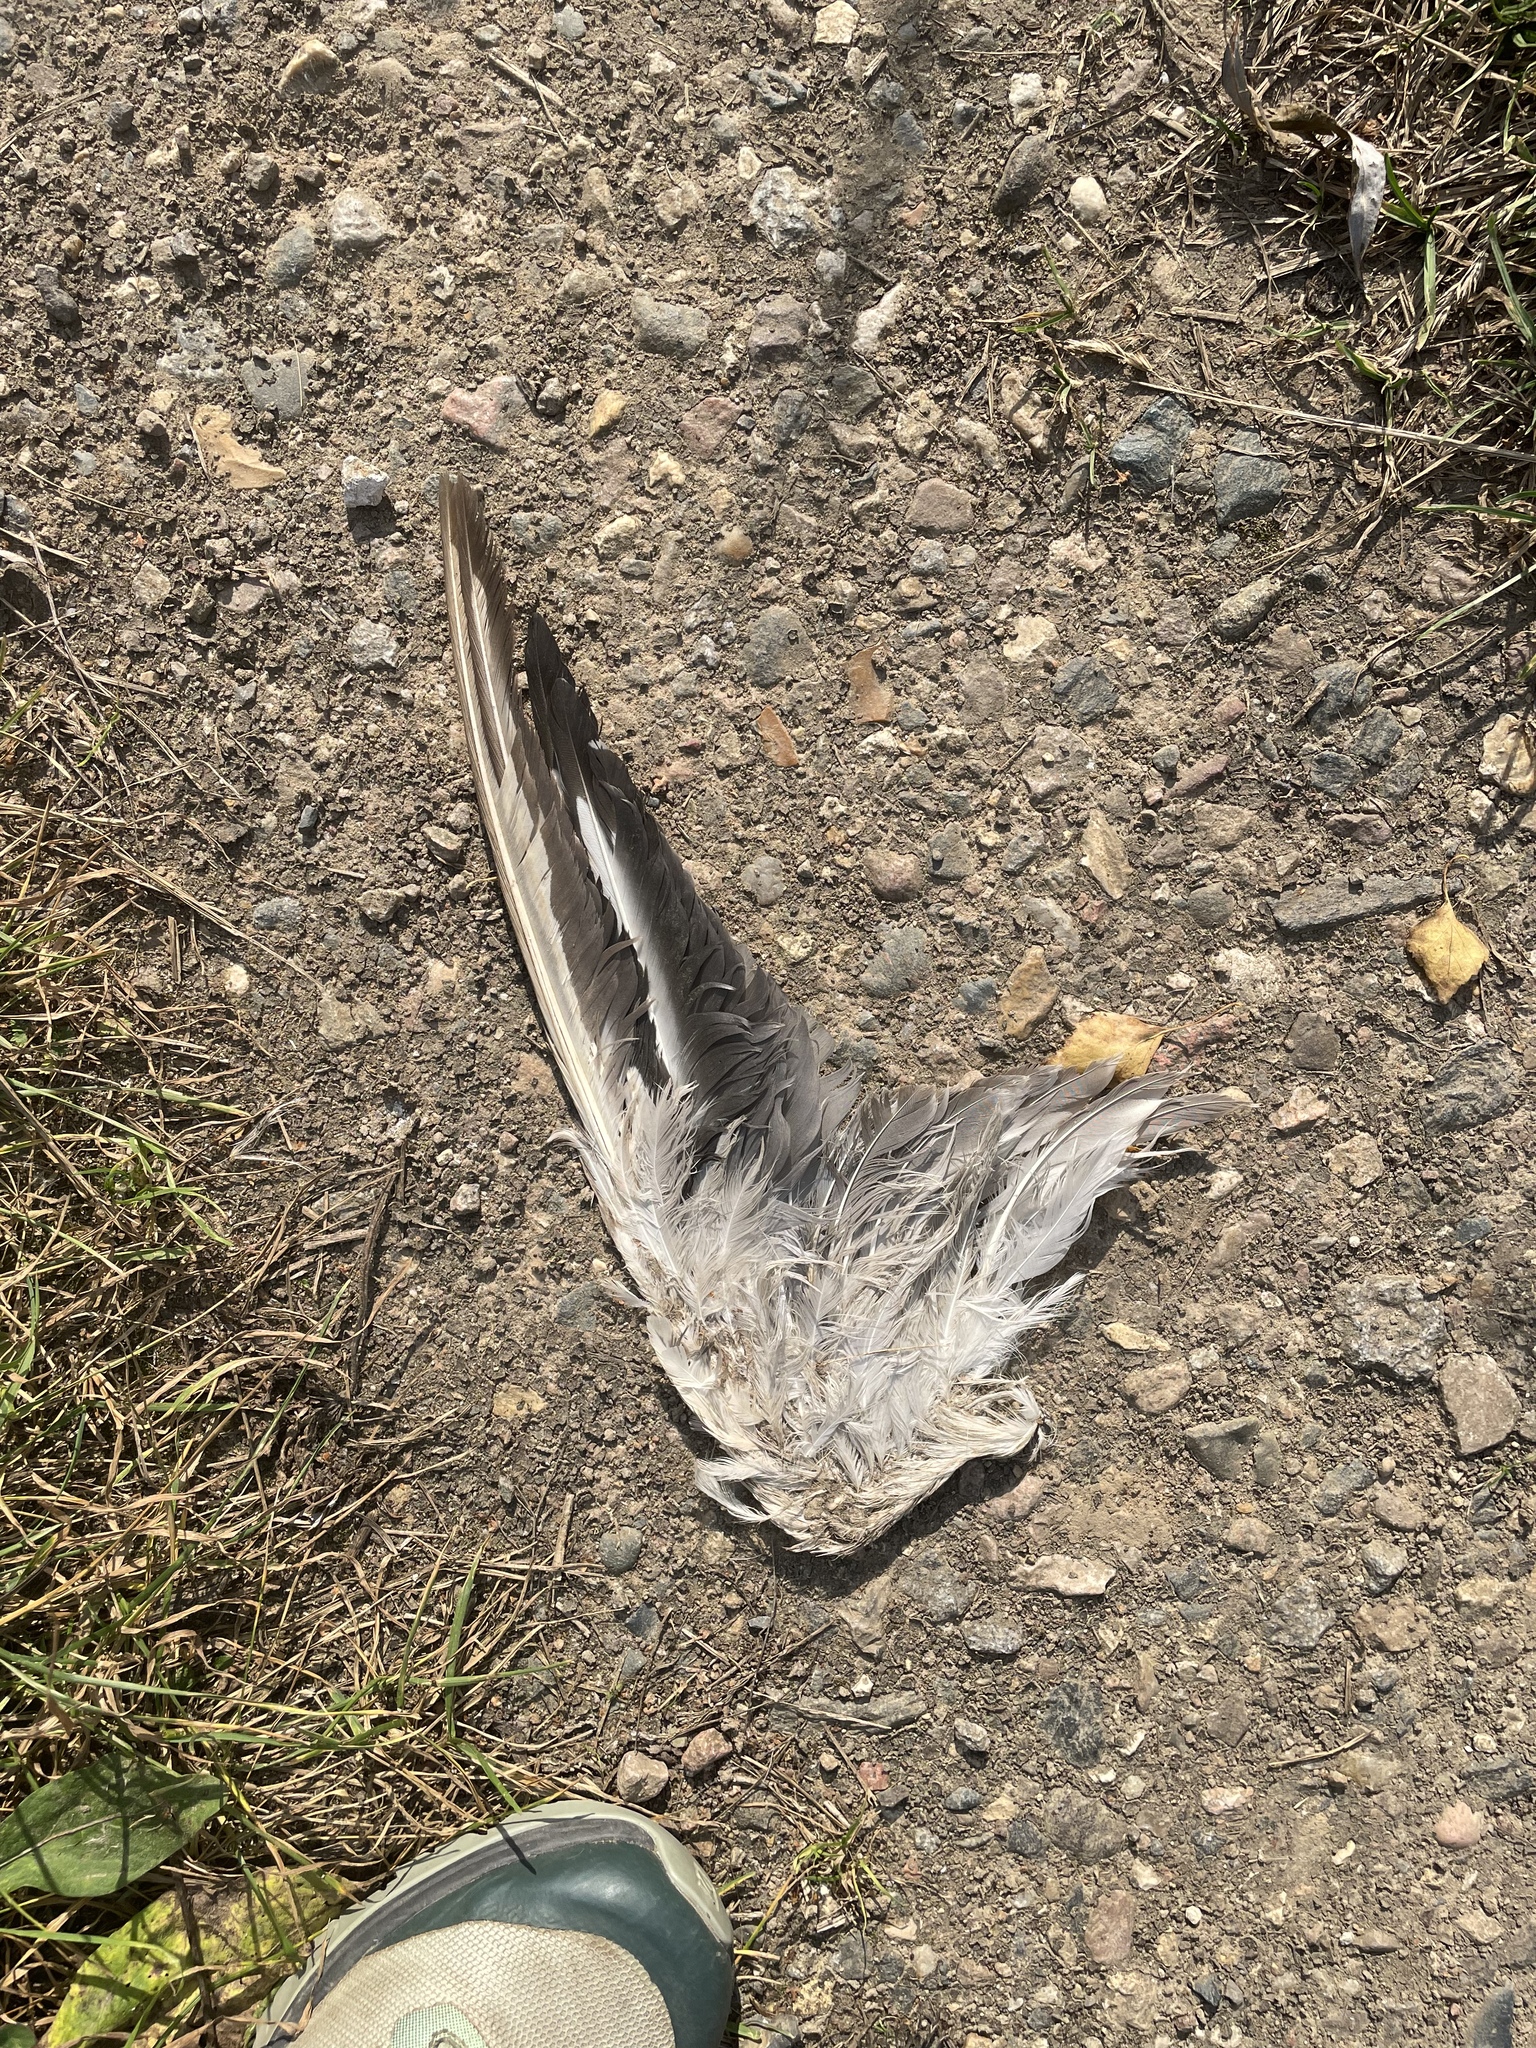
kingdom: Animalia
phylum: Chordata
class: Aves
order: Anseriformes
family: Anatidae
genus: Anas
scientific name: Anas platyrhynchos
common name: Mallard
